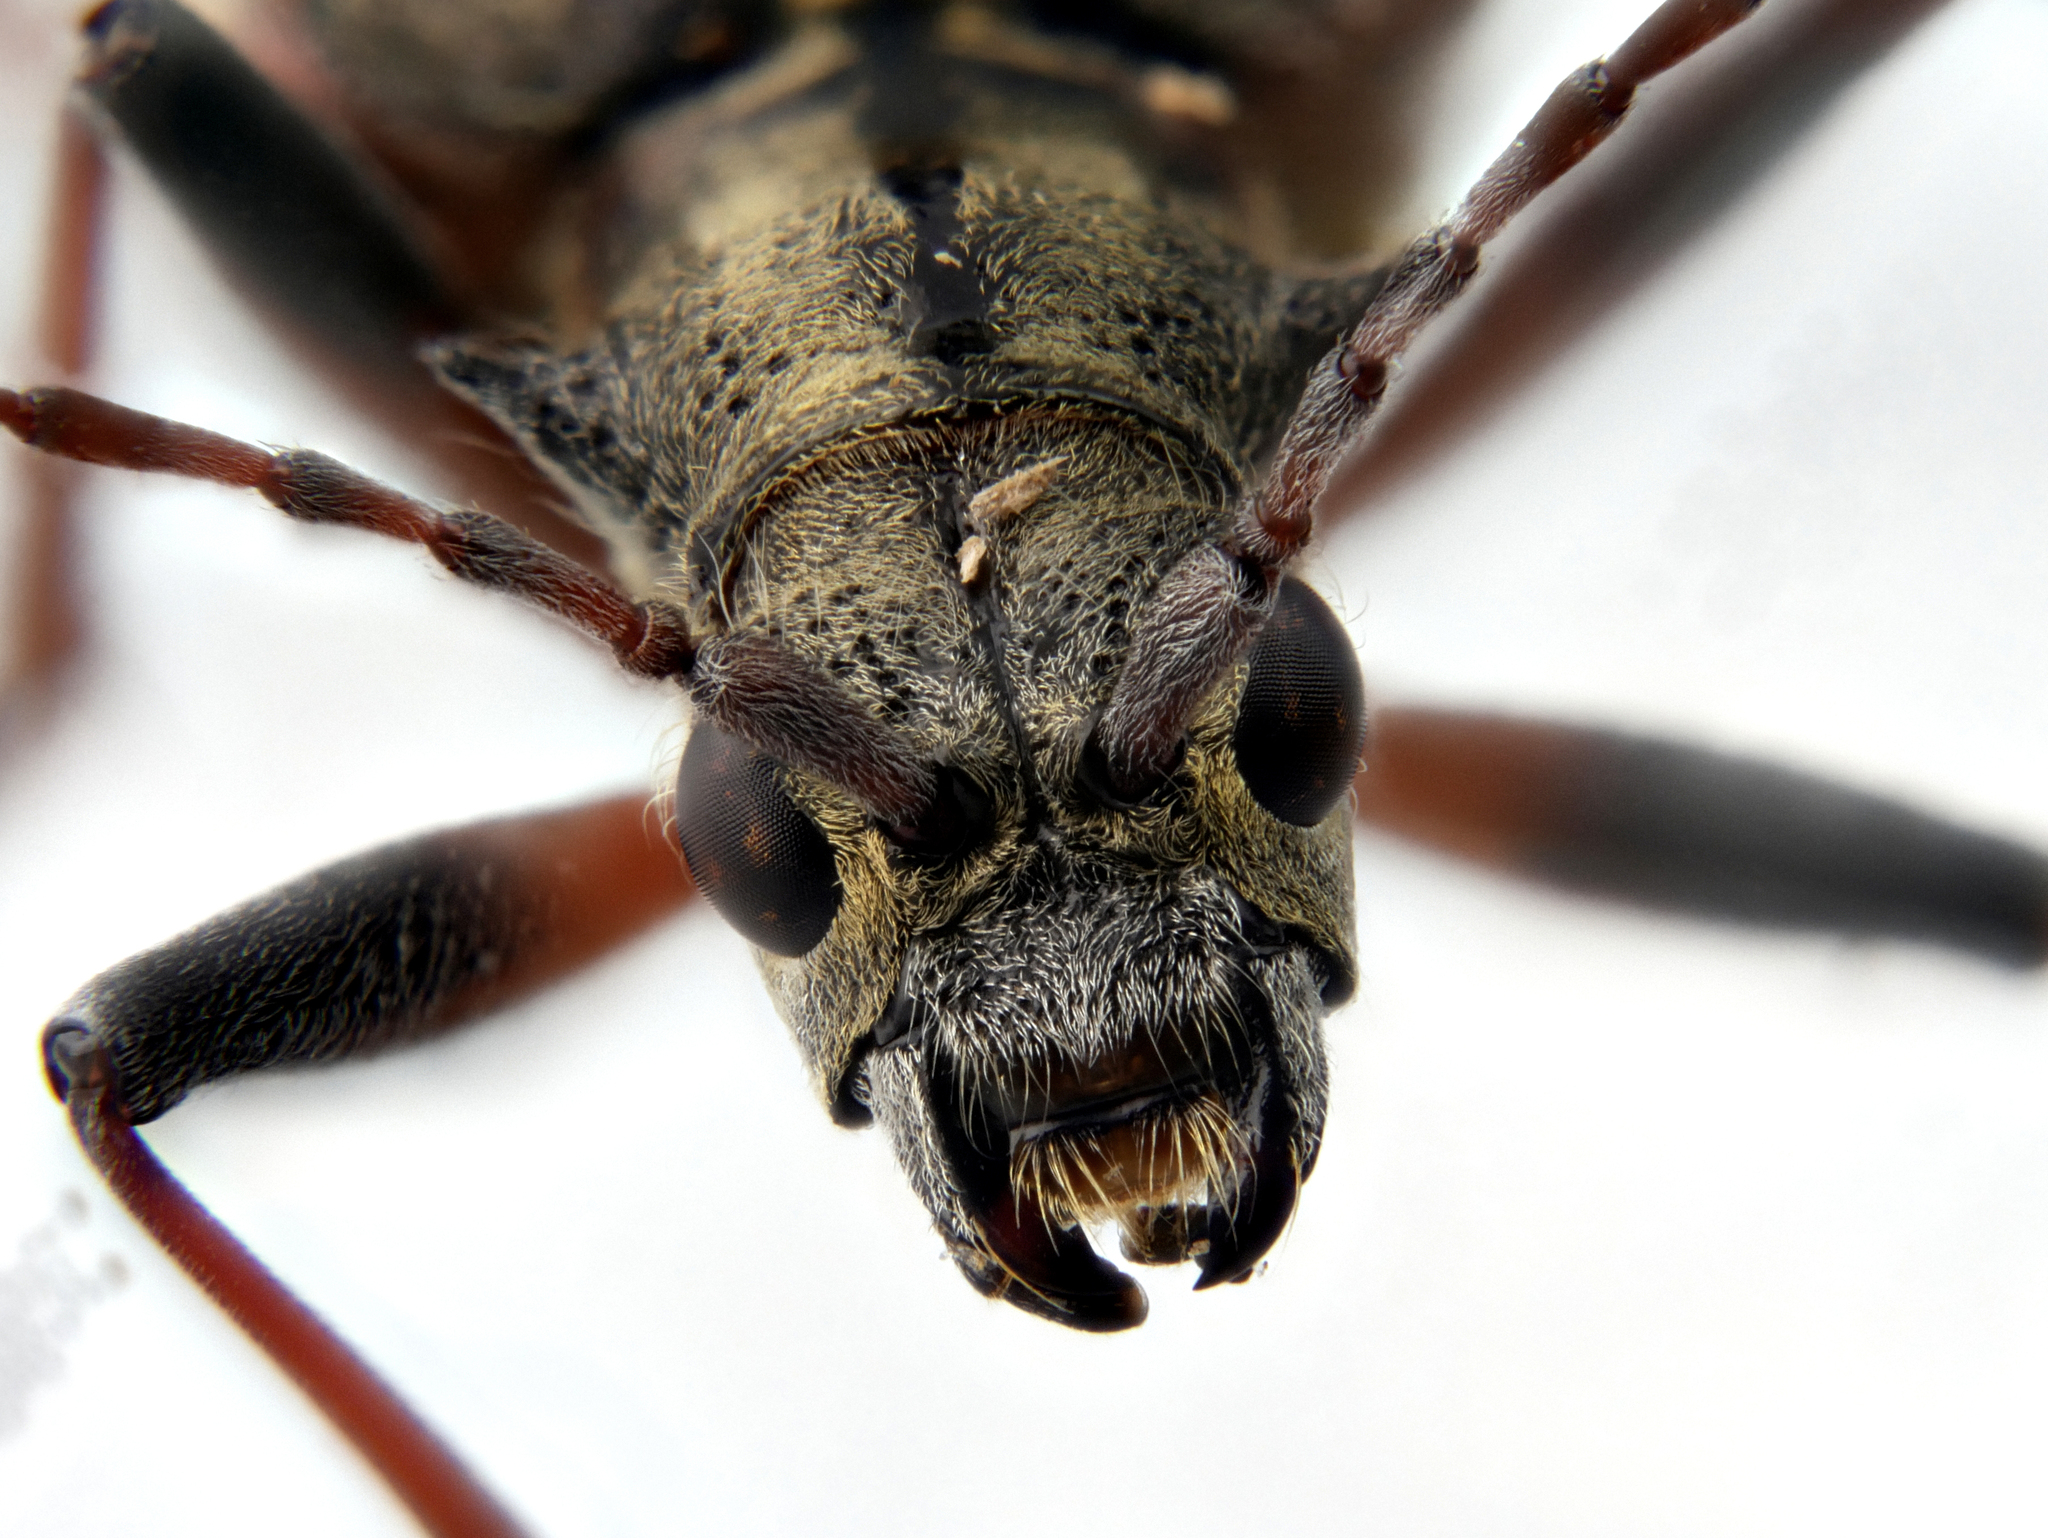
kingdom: Animalia
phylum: Arthropoda
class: Insecta
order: Coleoptera
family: Cerambycidae
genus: Rhagium
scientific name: Rhagium bifasciatum
